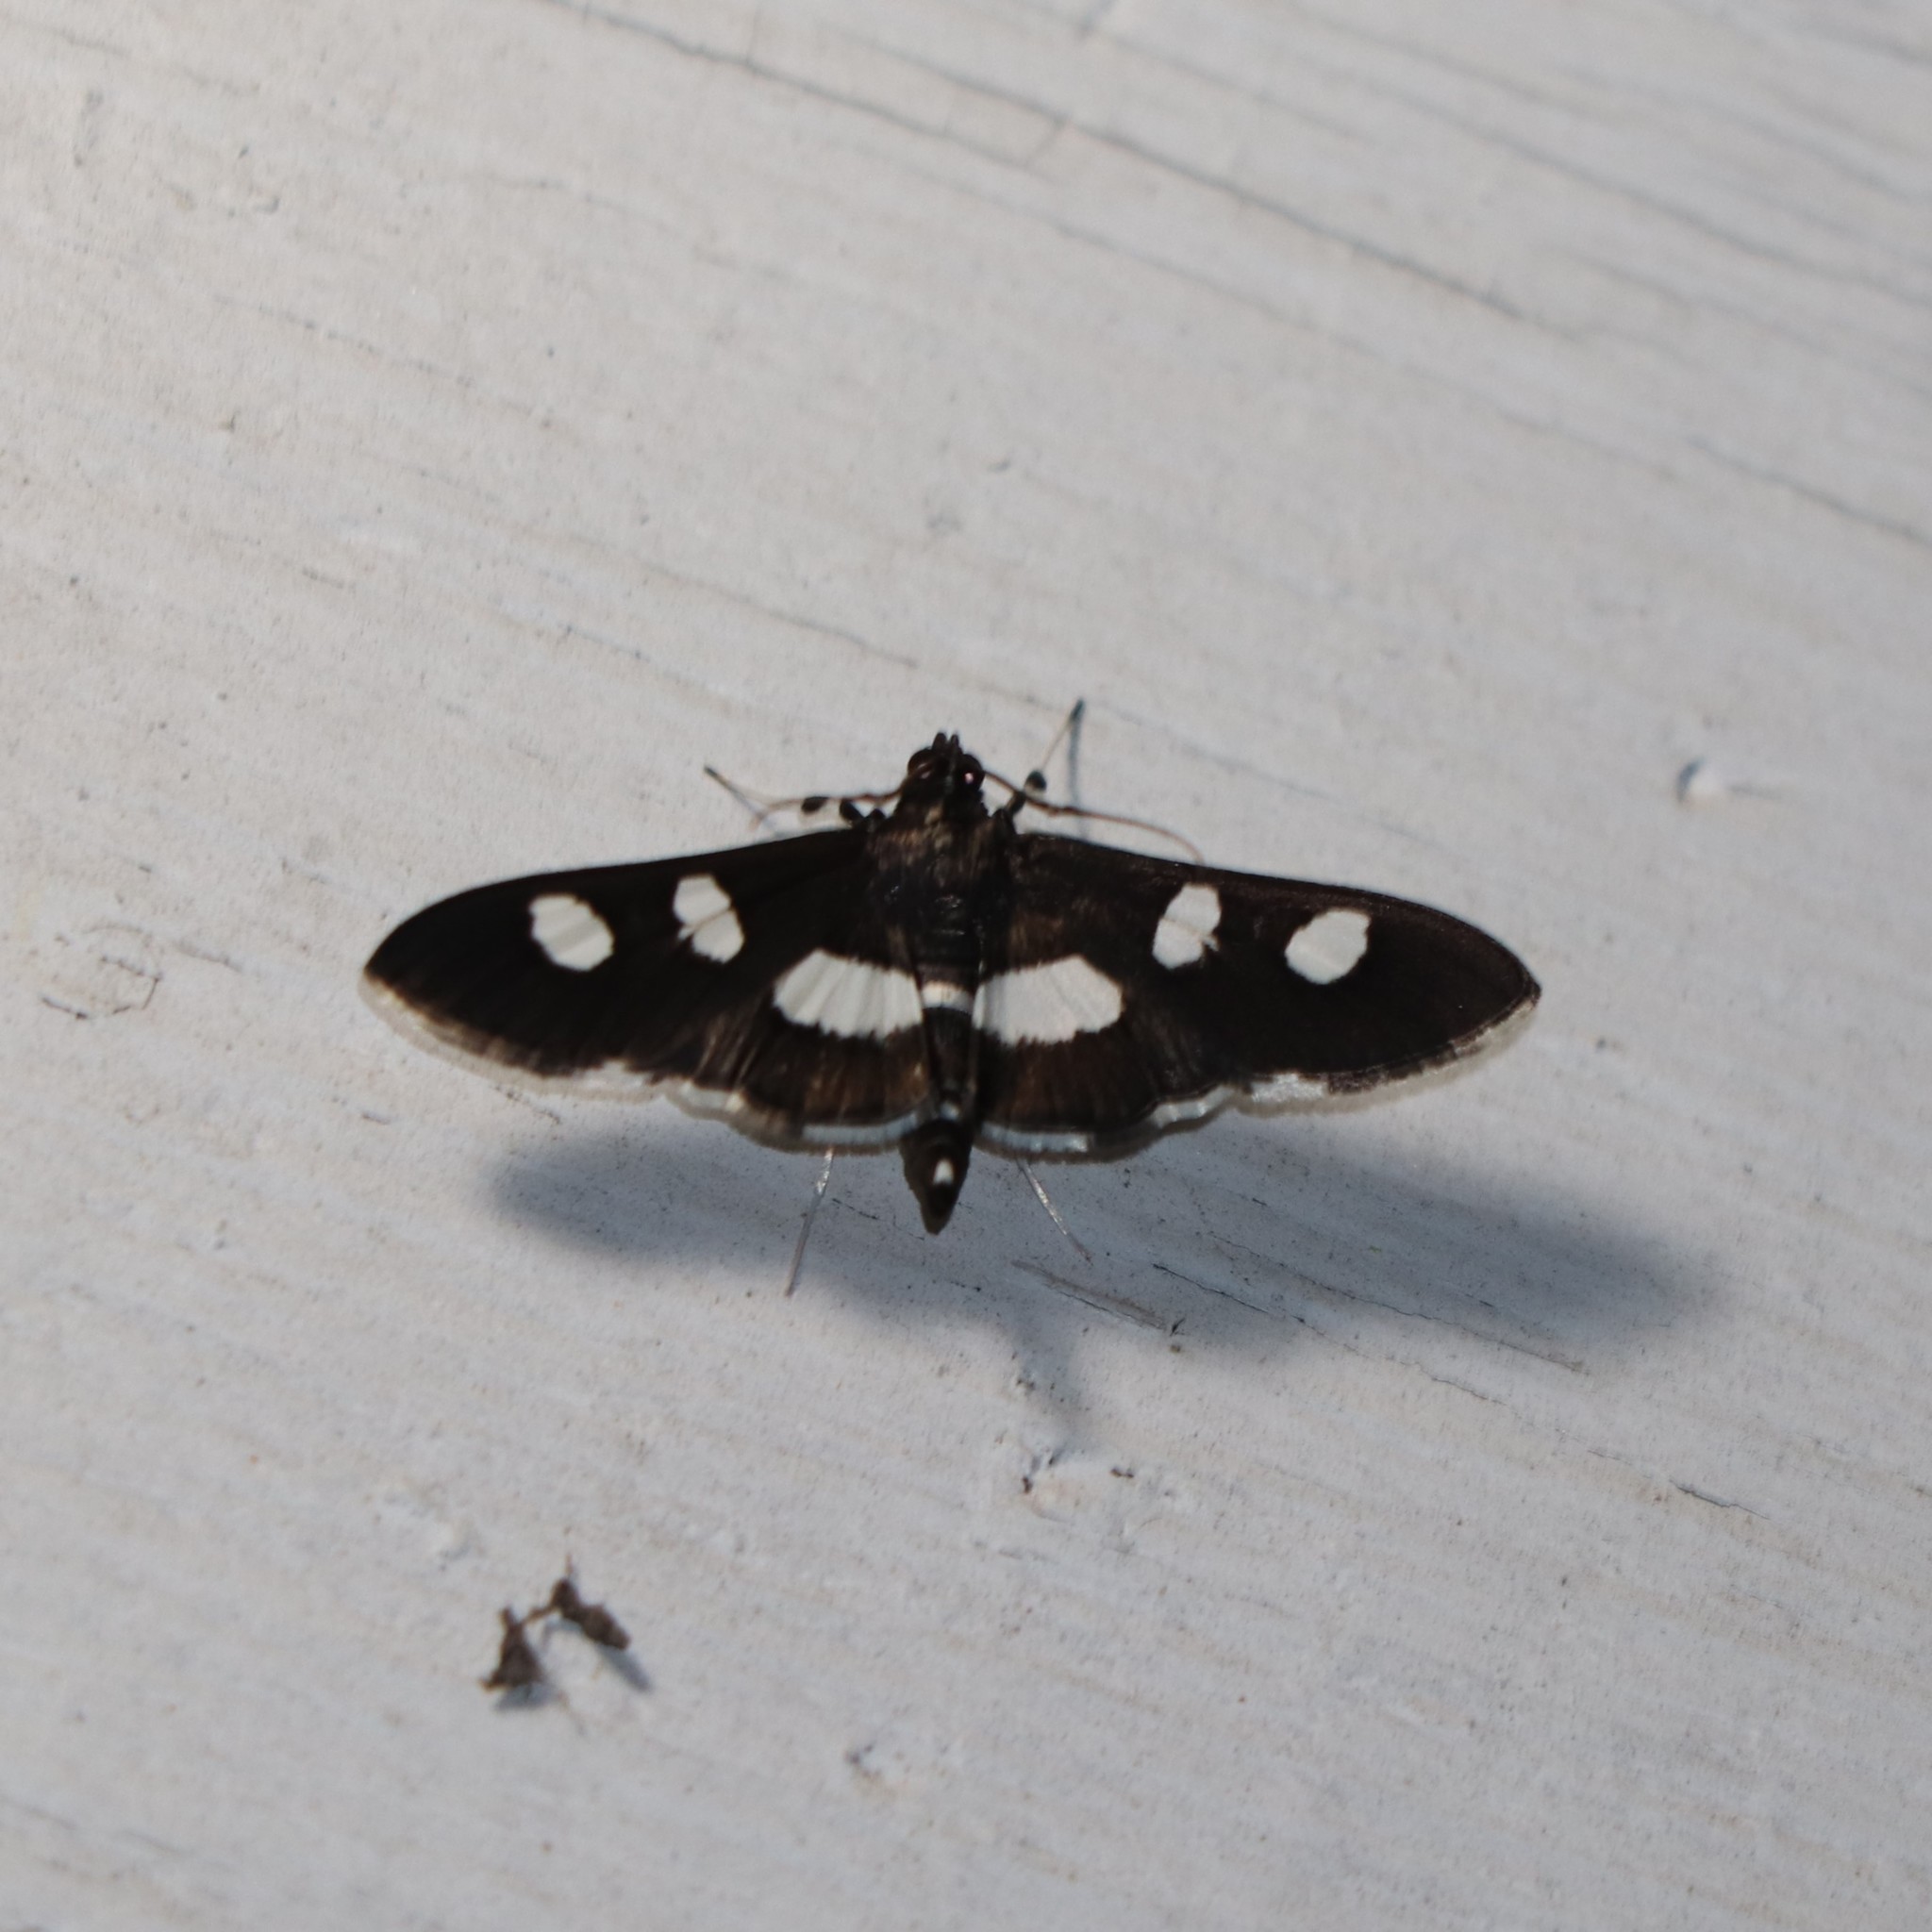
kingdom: Animalia
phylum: Arthropoda
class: Insecta
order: Lepidoptera
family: Crambidae
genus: Desmia
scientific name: Desmia
